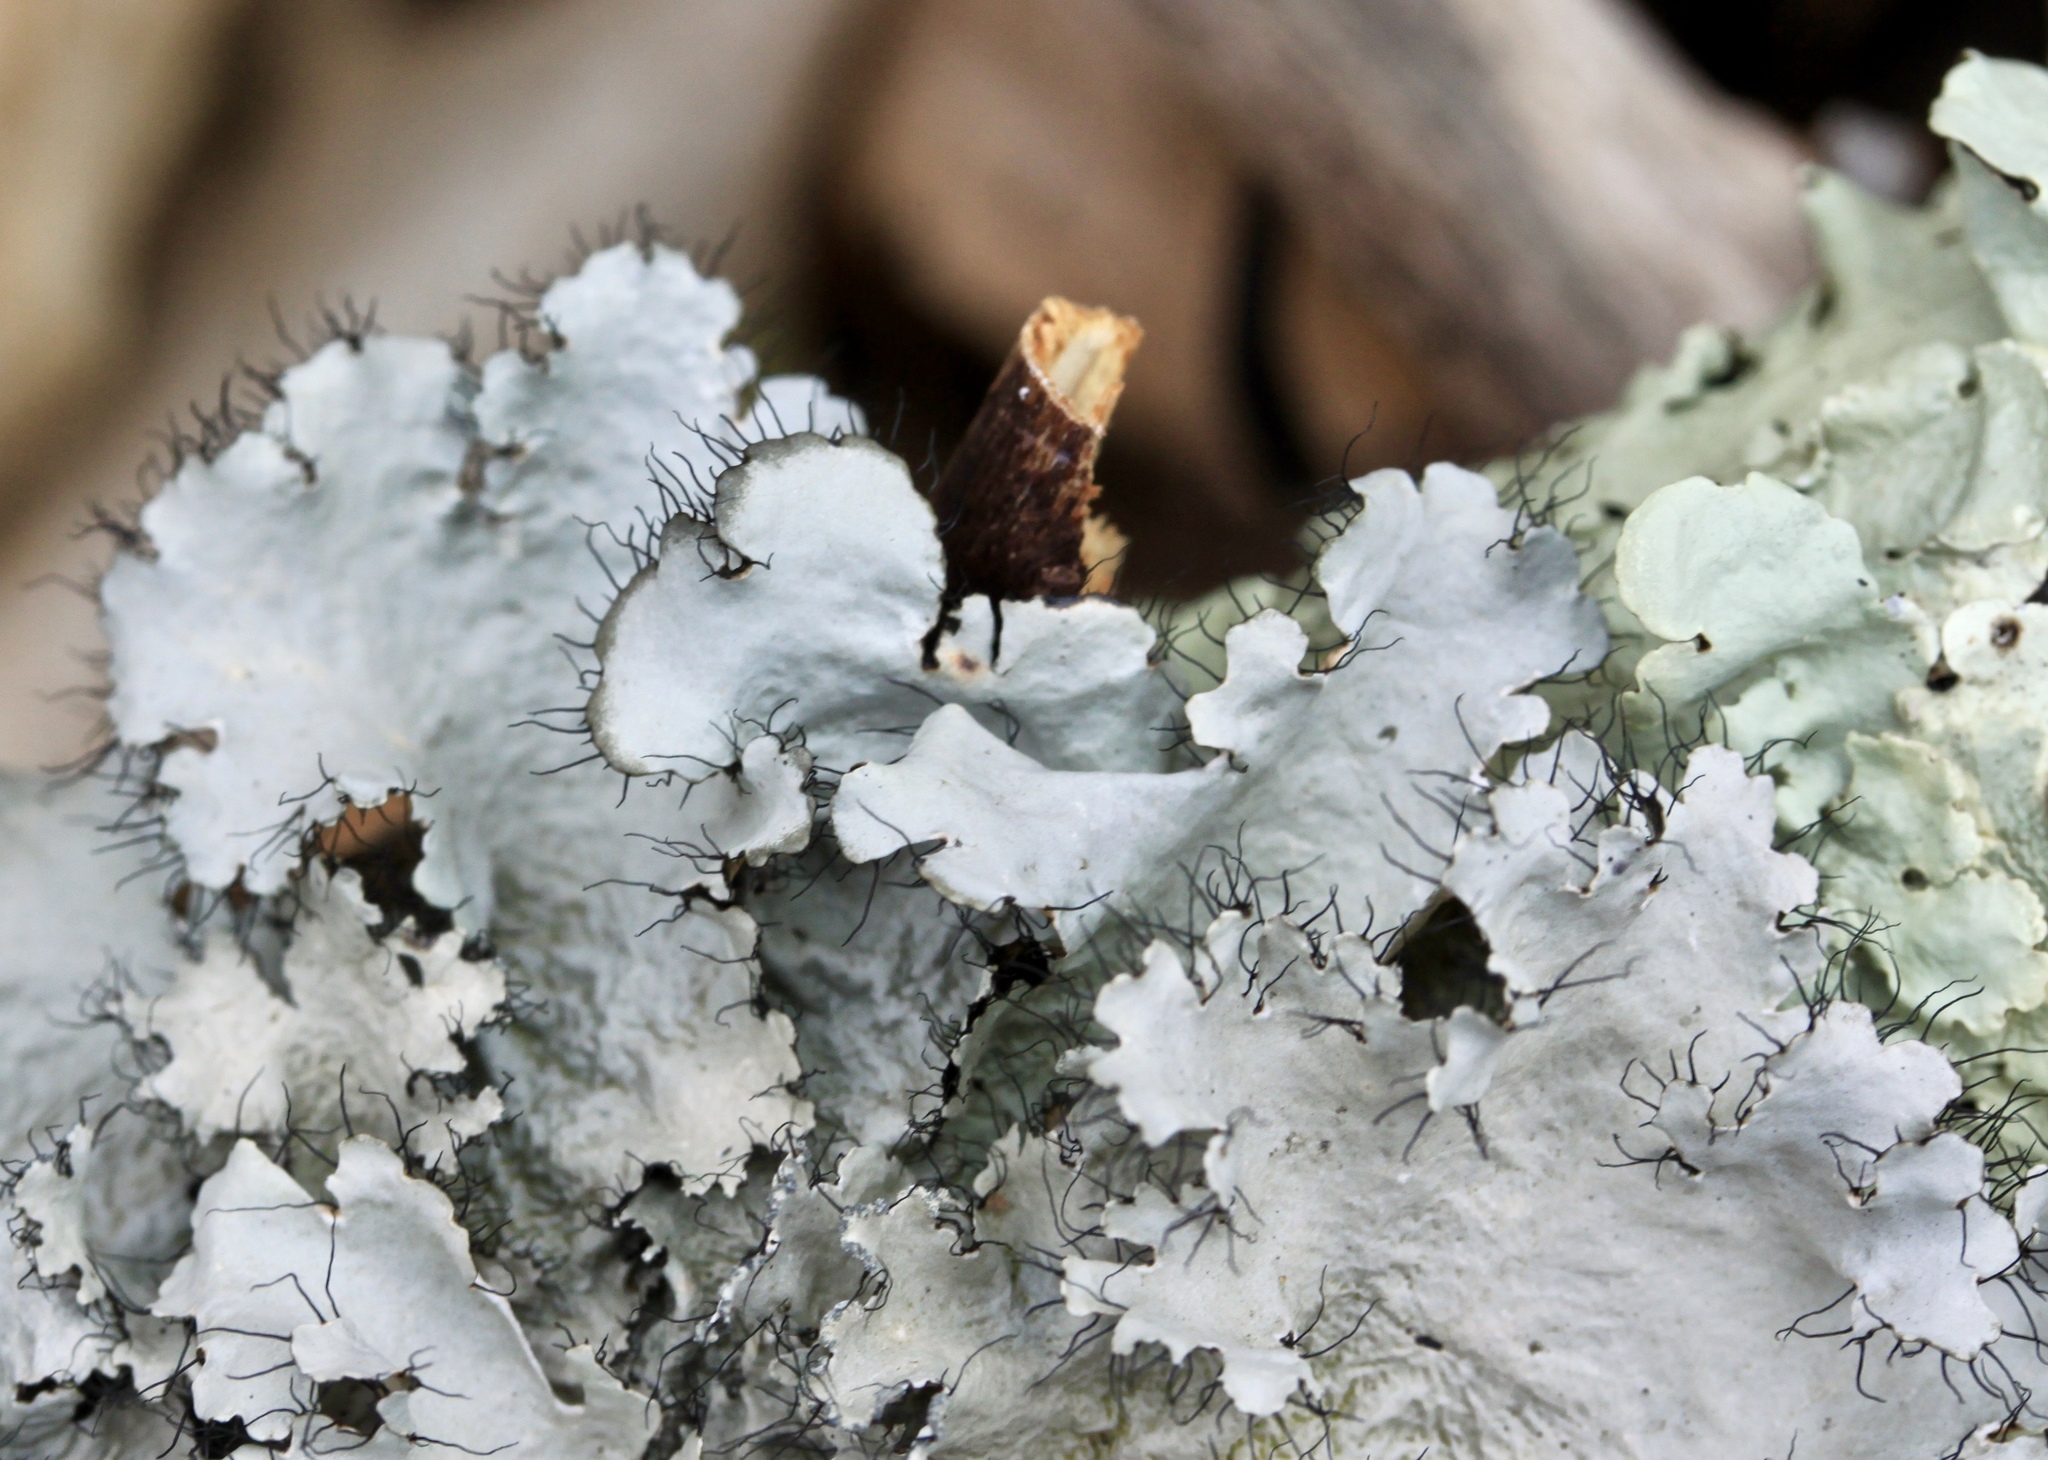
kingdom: Fungi
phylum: Ascomycota
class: Lecanoromycetes
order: Lecanorales
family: Parmeliaceae
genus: Parmotrema
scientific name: Parmotrema hypotropum
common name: Powdered ruffle lichen
